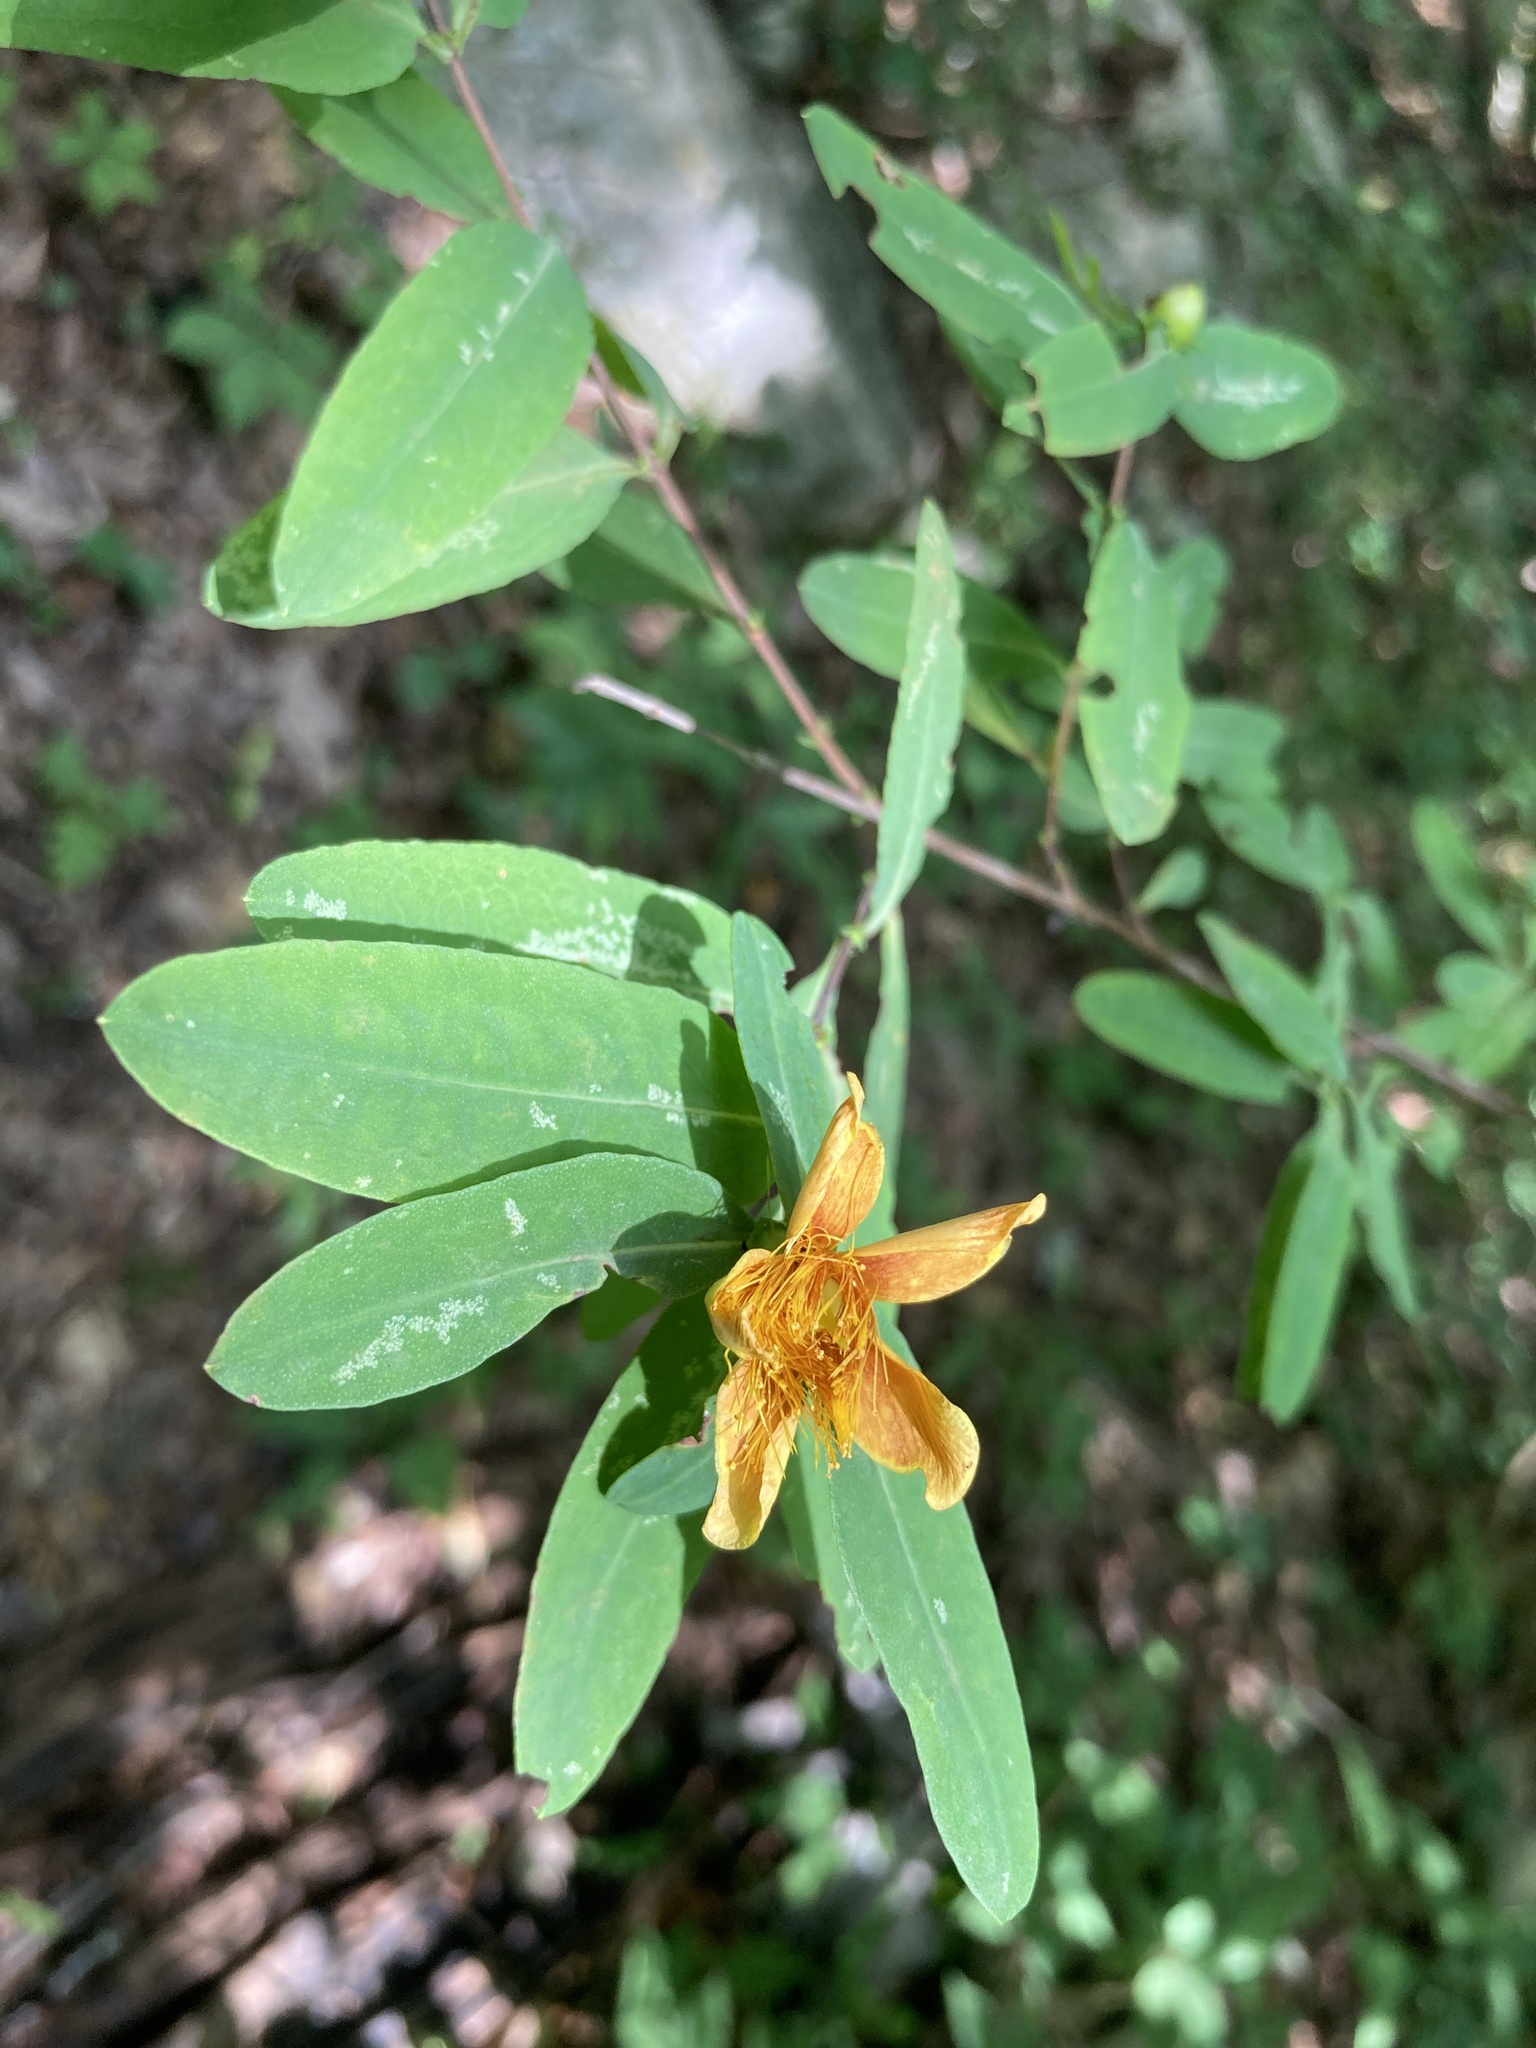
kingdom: Plantae
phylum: Tracheophyta
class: Magnoliopsida
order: Malpighiales
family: Hypericaceae
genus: Hypericum
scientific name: Hypericum frondosum
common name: Golden st. john's-wort
